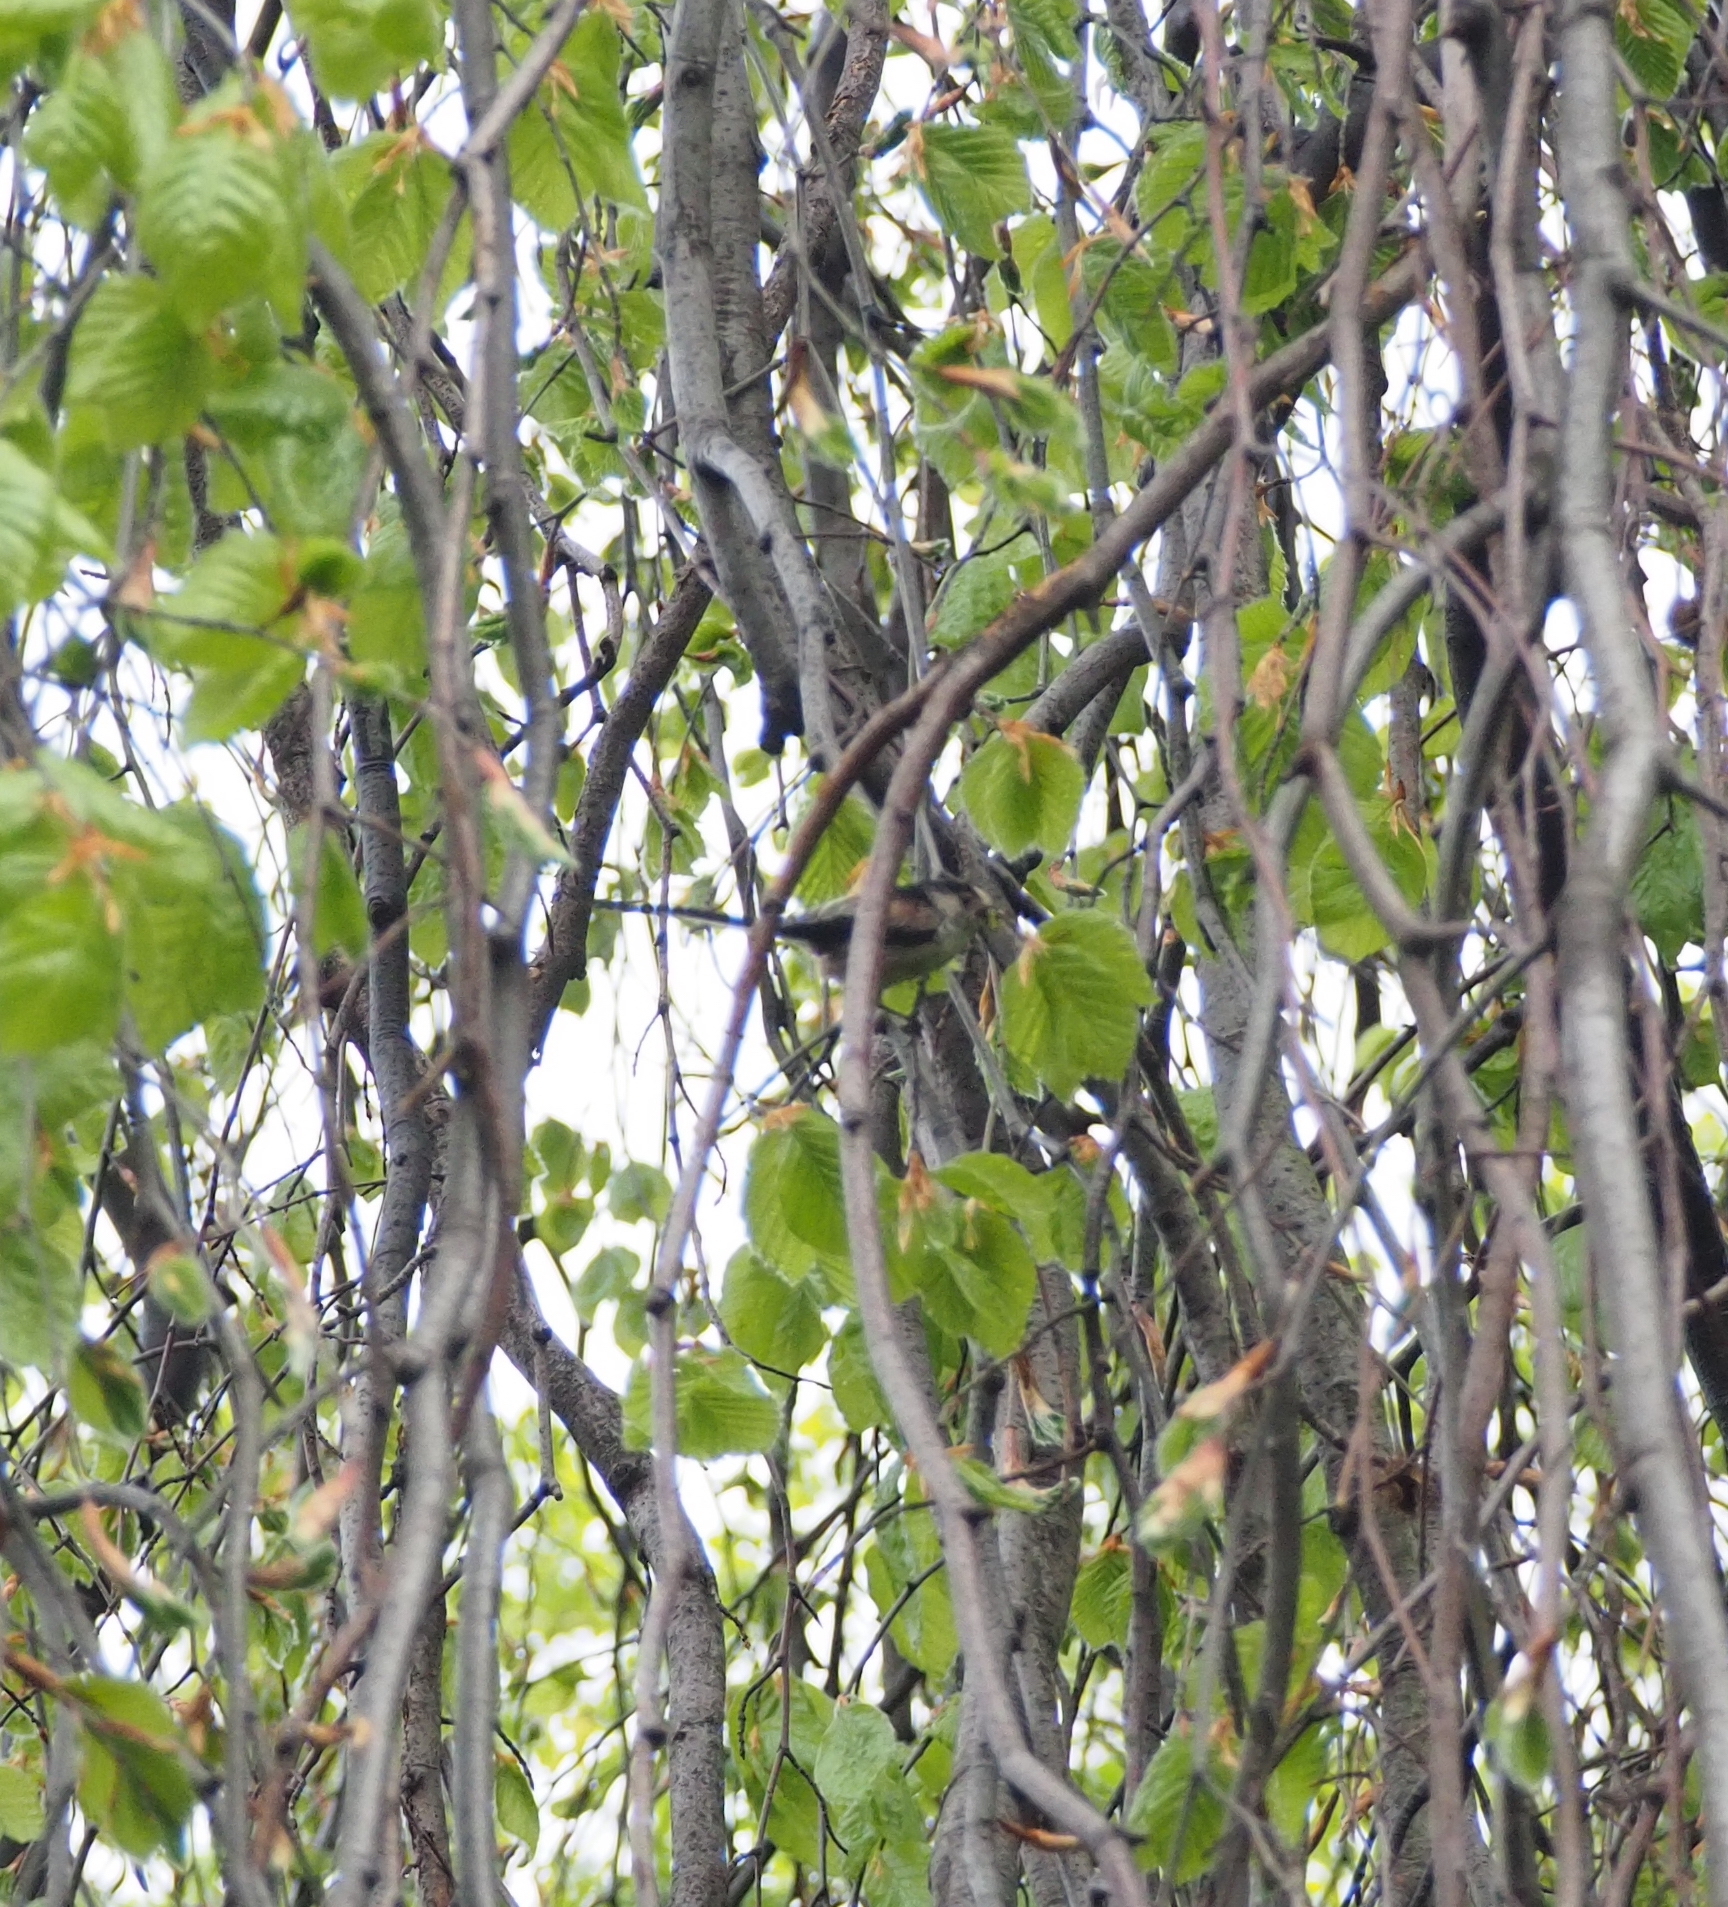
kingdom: Animalia
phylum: Chordata
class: Aves
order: Passeriformes
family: Aegithalidae
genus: Aegithalos
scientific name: Aegithalos caudatus
